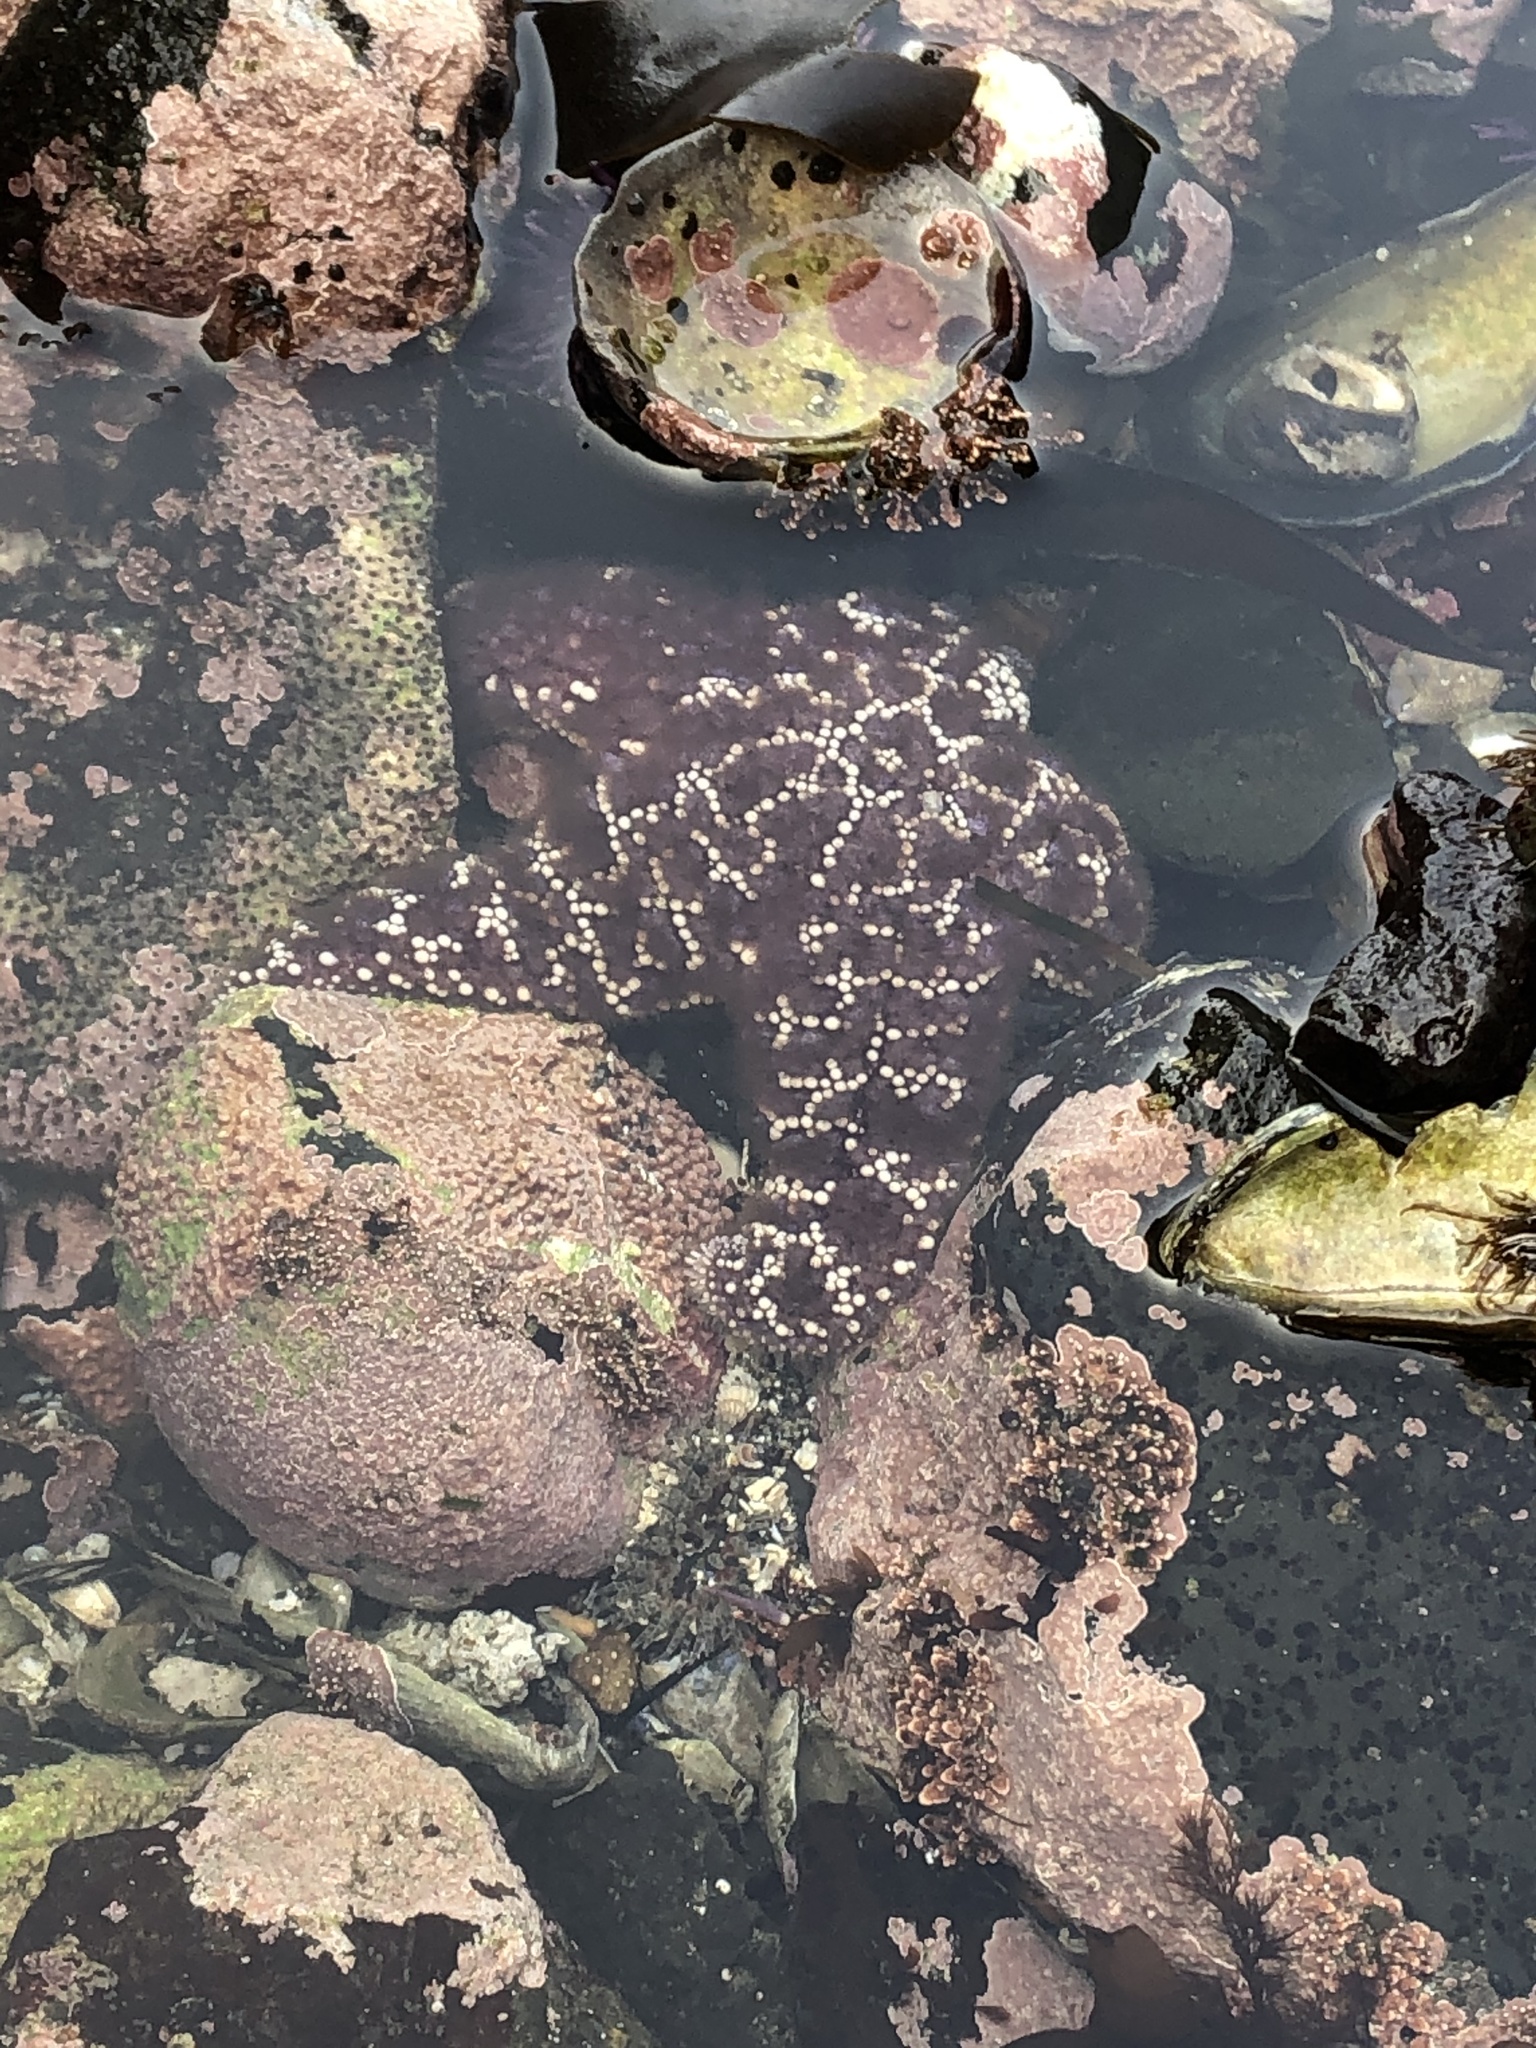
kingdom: Animalia
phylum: Echinodermata
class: Asteroidea
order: Forcipulatida
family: Asteriidae
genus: Pisaster
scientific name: Pisaster ochraceus
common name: Ochre stars
